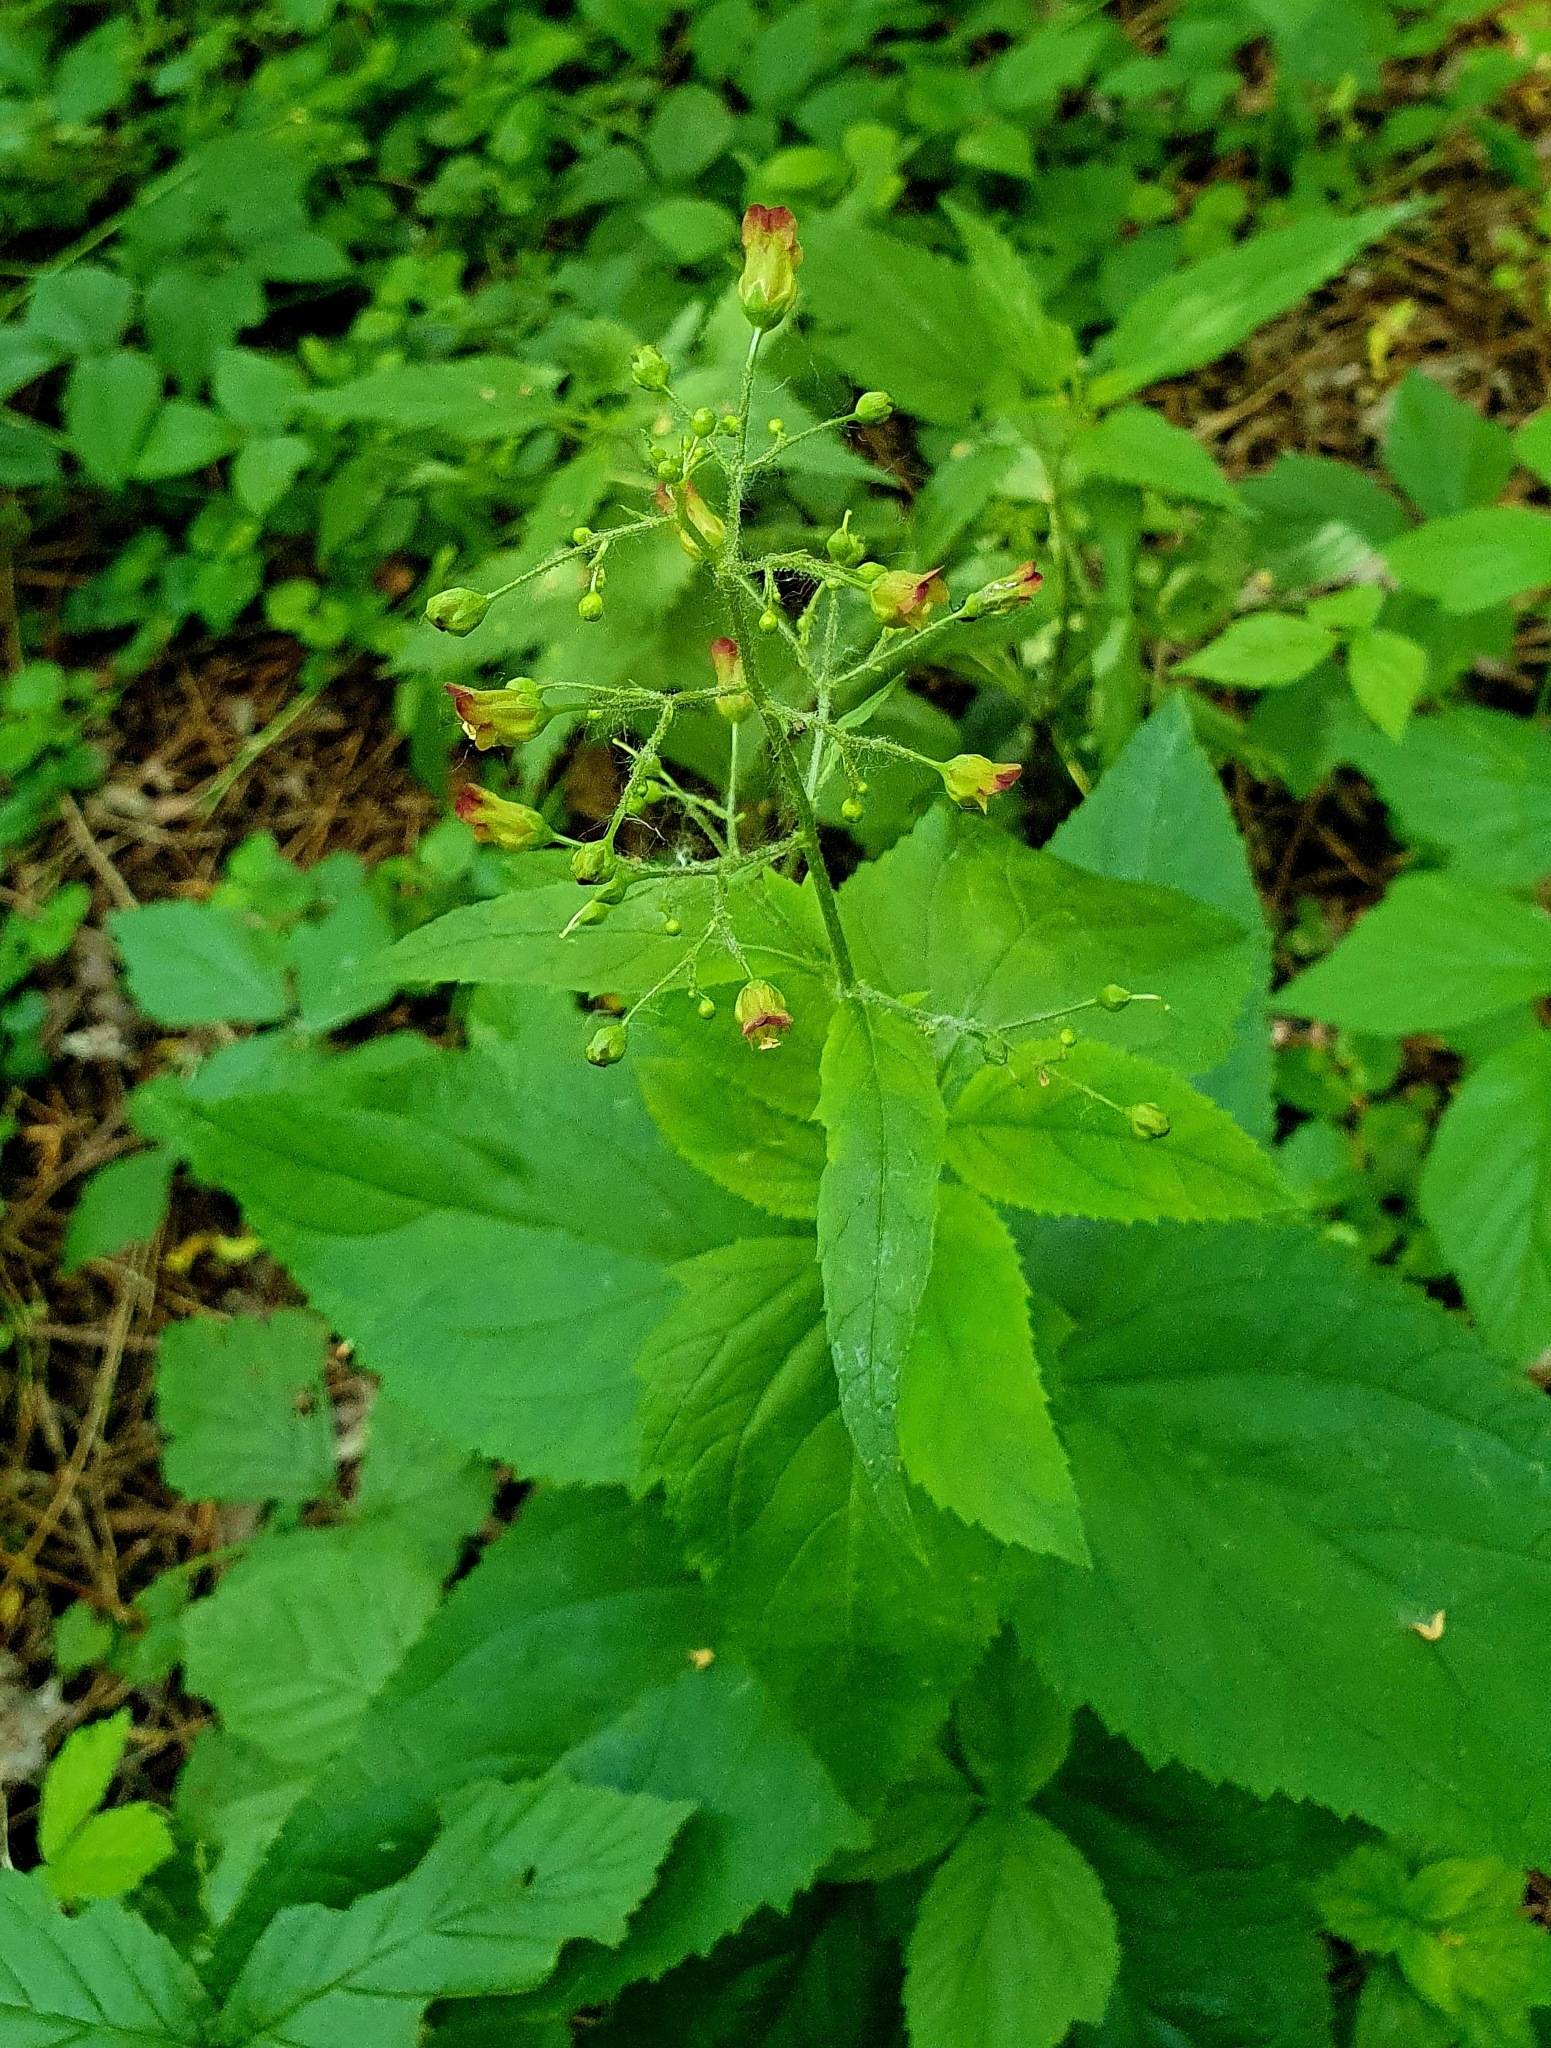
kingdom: Plantae
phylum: Tracheophyta
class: Magnoliopsida
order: Lamiales
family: Scrophulariaceae
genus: Scrophularia
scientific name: Scrophularia nodosa
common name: Common figwort
